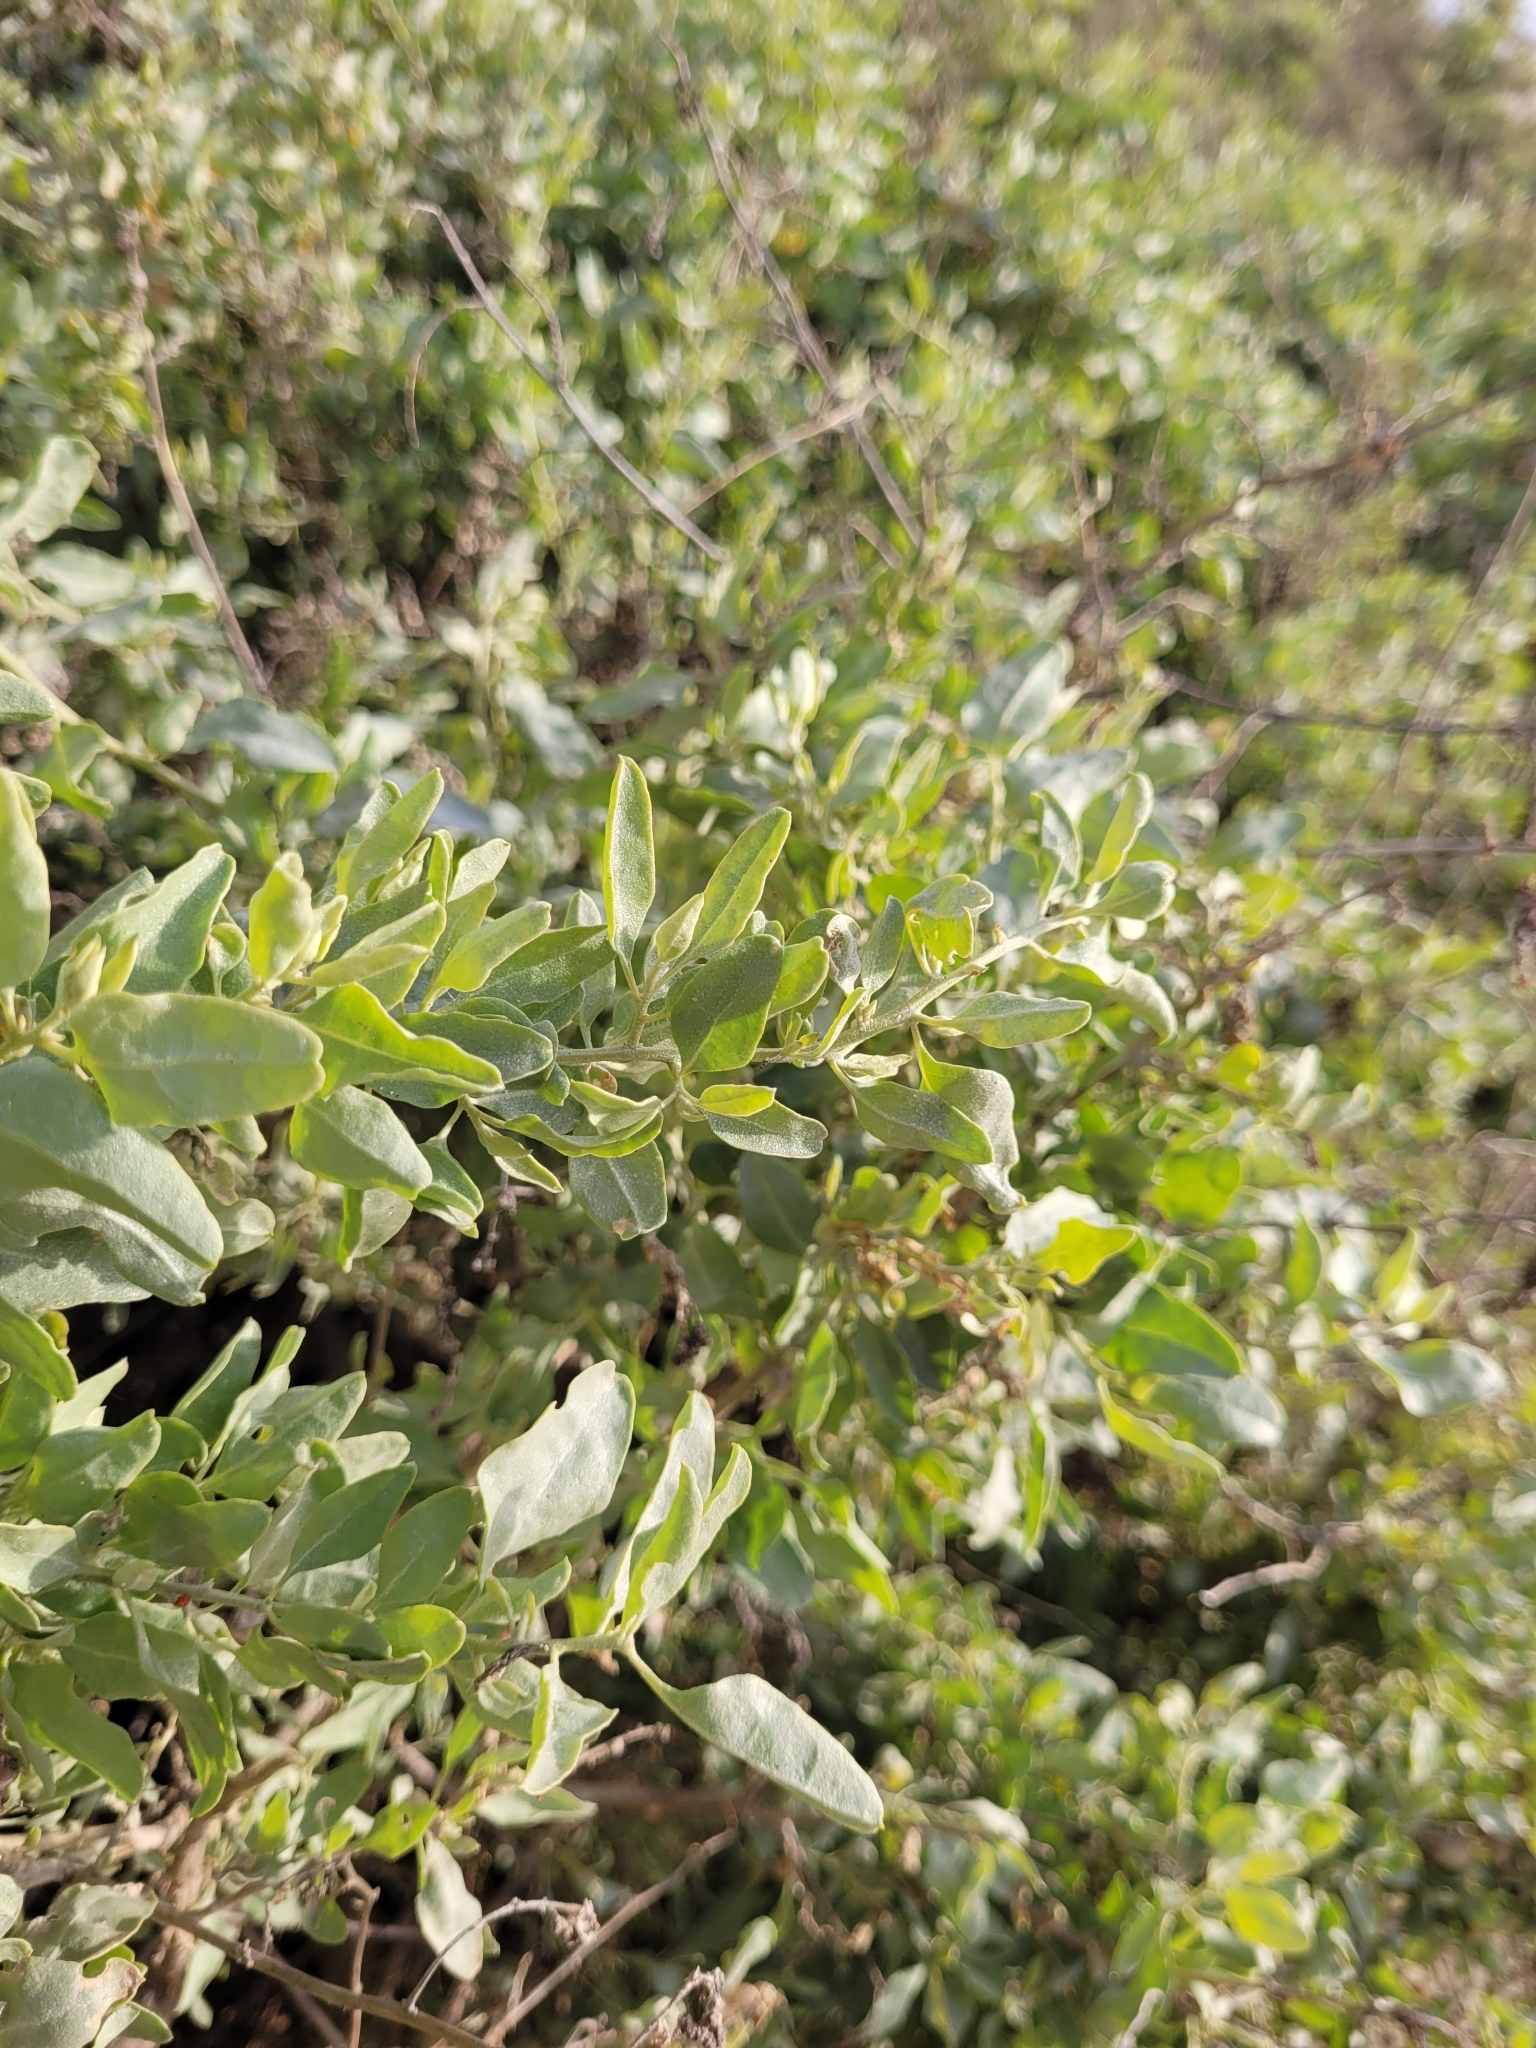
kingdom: Plantae
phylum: Tracheophyta
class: Magnoliopsida
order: Caryophyllales
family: Amaranthaceae
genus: Atriplex
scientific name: Atriplex lentiformis
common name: Big saltbush
